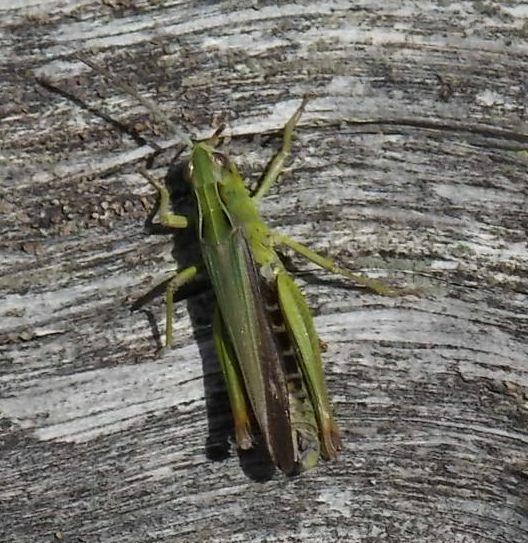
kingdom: Animalia
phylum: Arthropoda
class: Insecta
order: Orthoptera
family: Acrididae
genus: Omocestus
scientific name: Omocestus viridulus
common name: Common green grasshopper
